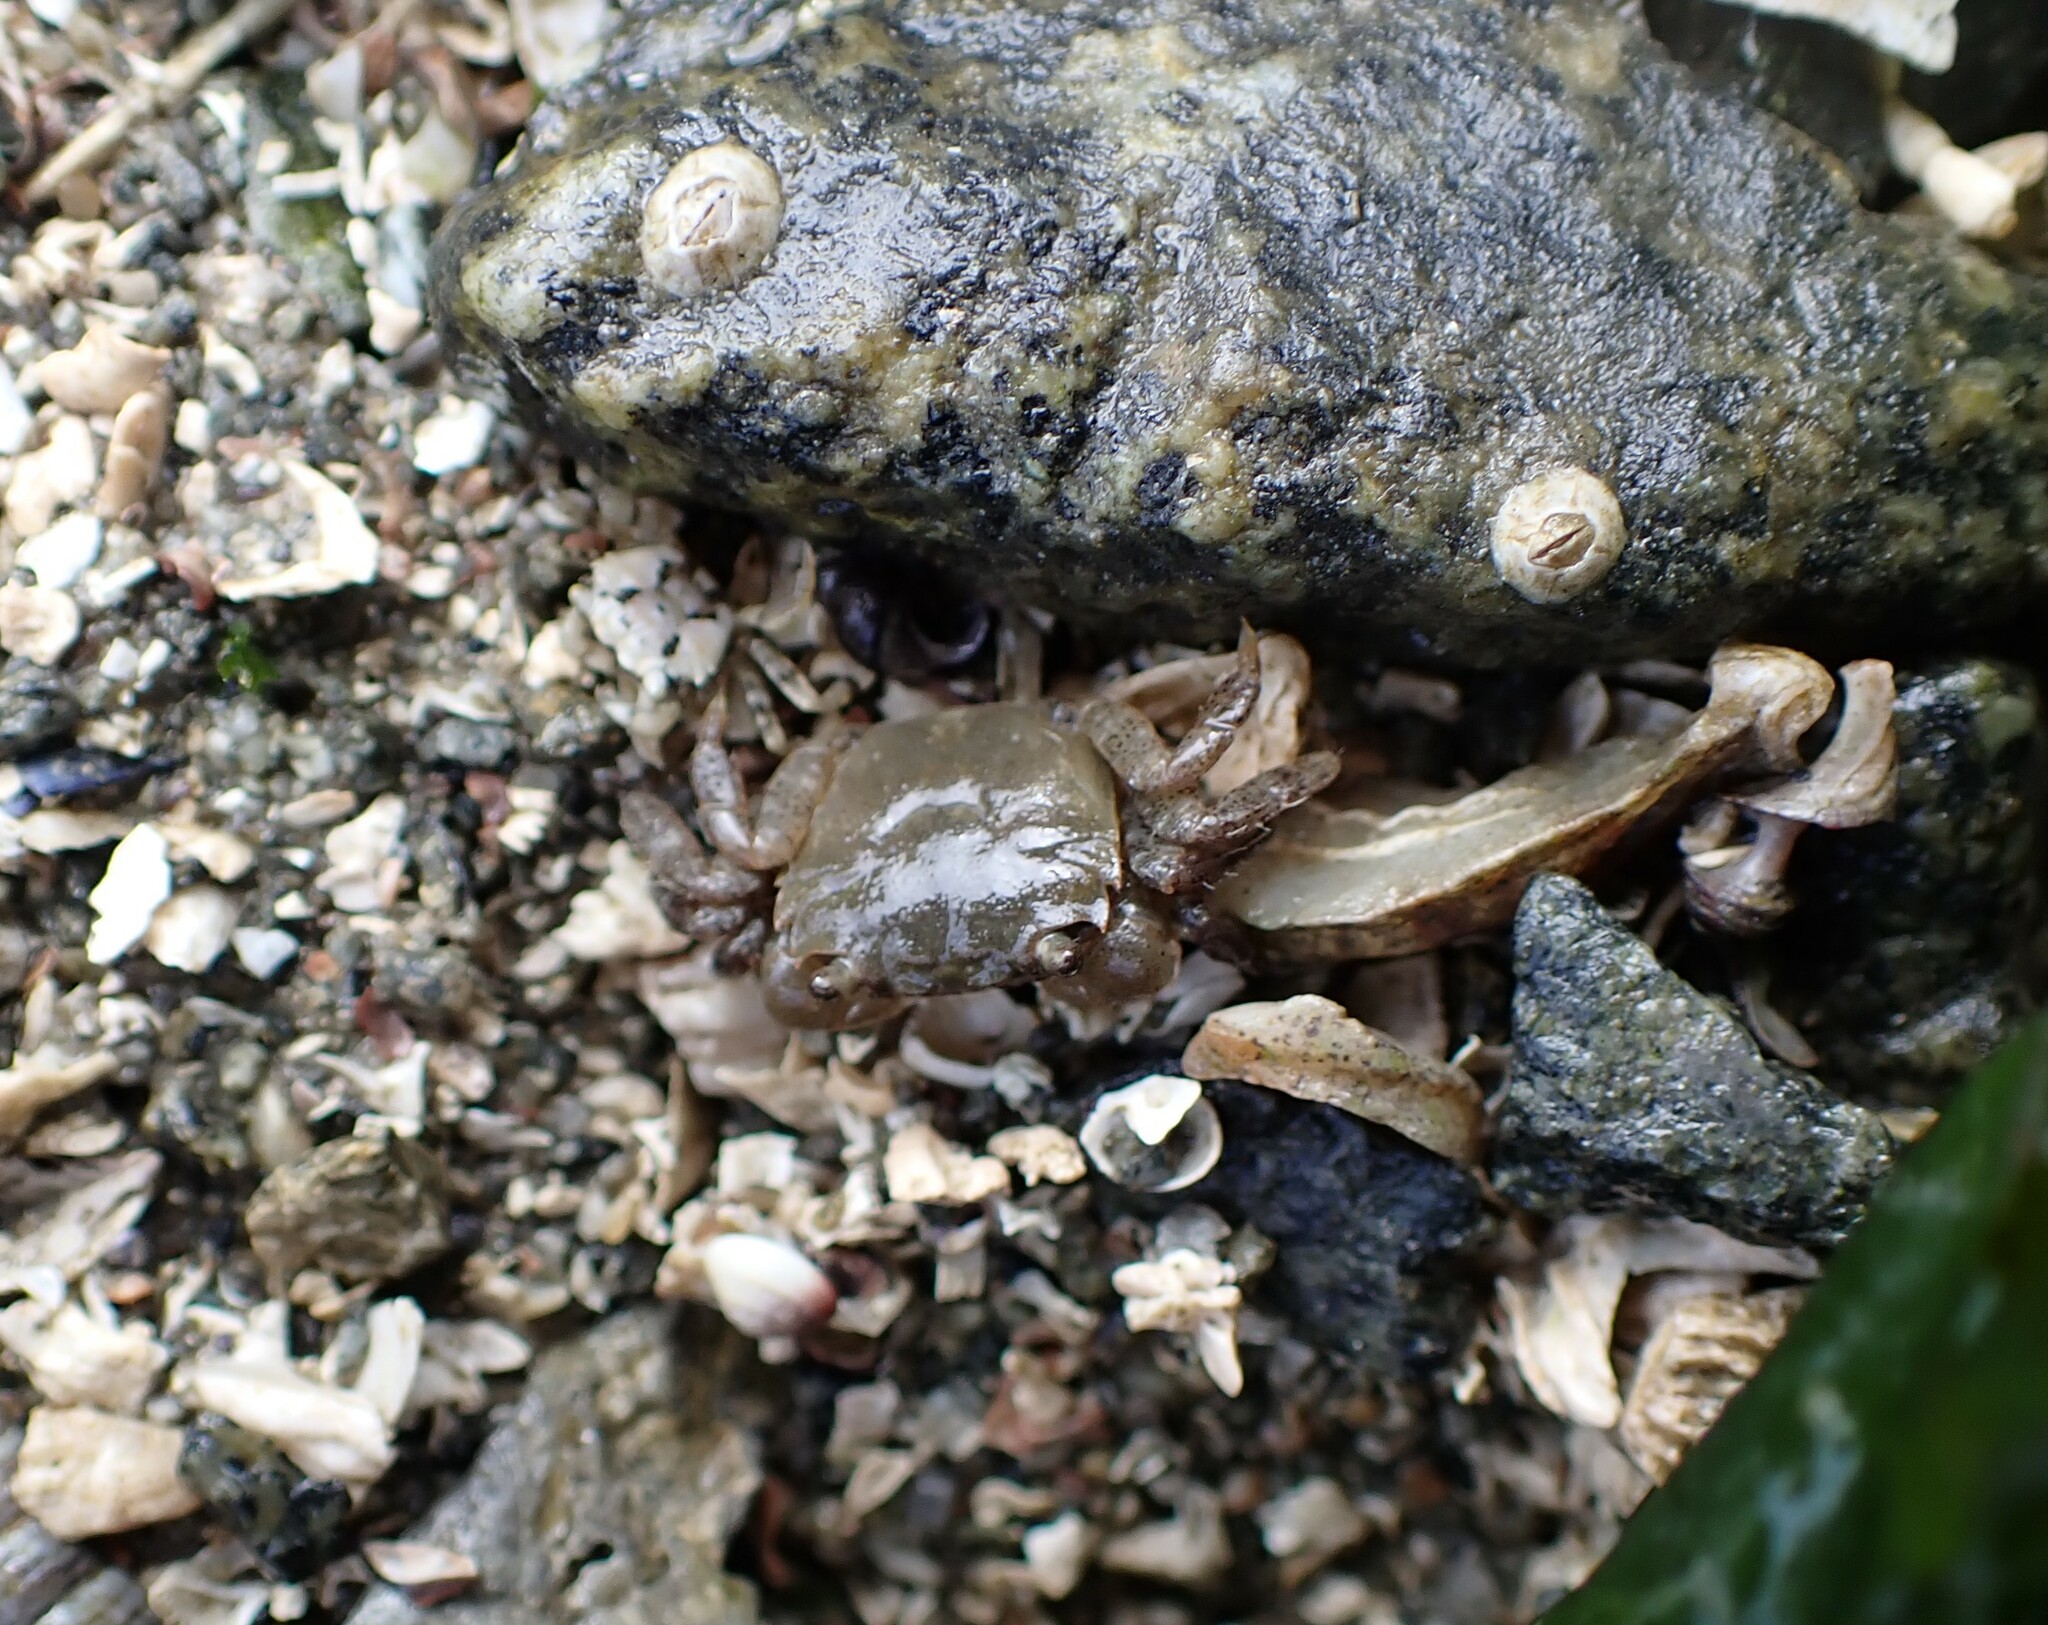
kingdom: Animalia
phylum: Arthropoda
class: Malacostraca
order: Decapoda
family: Varunidae
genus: Hemigrapsus
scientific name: Hemigrapsus oregonensis
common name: Yellow shore crab
